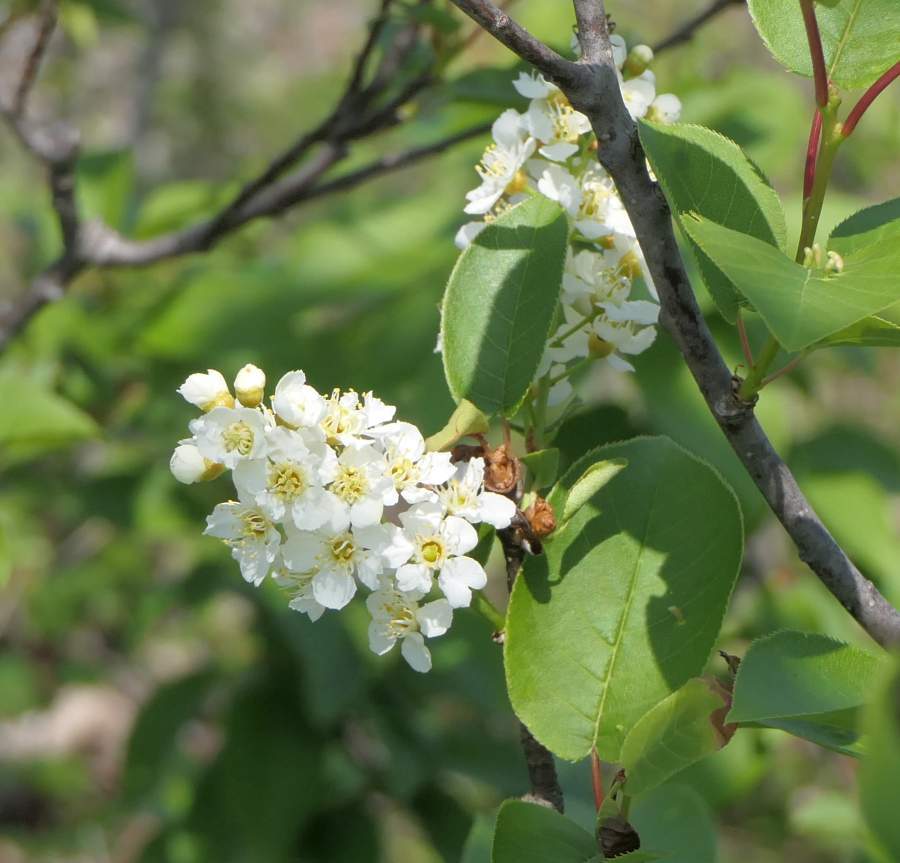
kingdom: Plantae
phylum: Tracheophyta
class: Magnoliopsida
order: Rosales
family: Rosaceae
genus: Prunus
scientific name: Prunus virginiana
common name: Chokecherry
